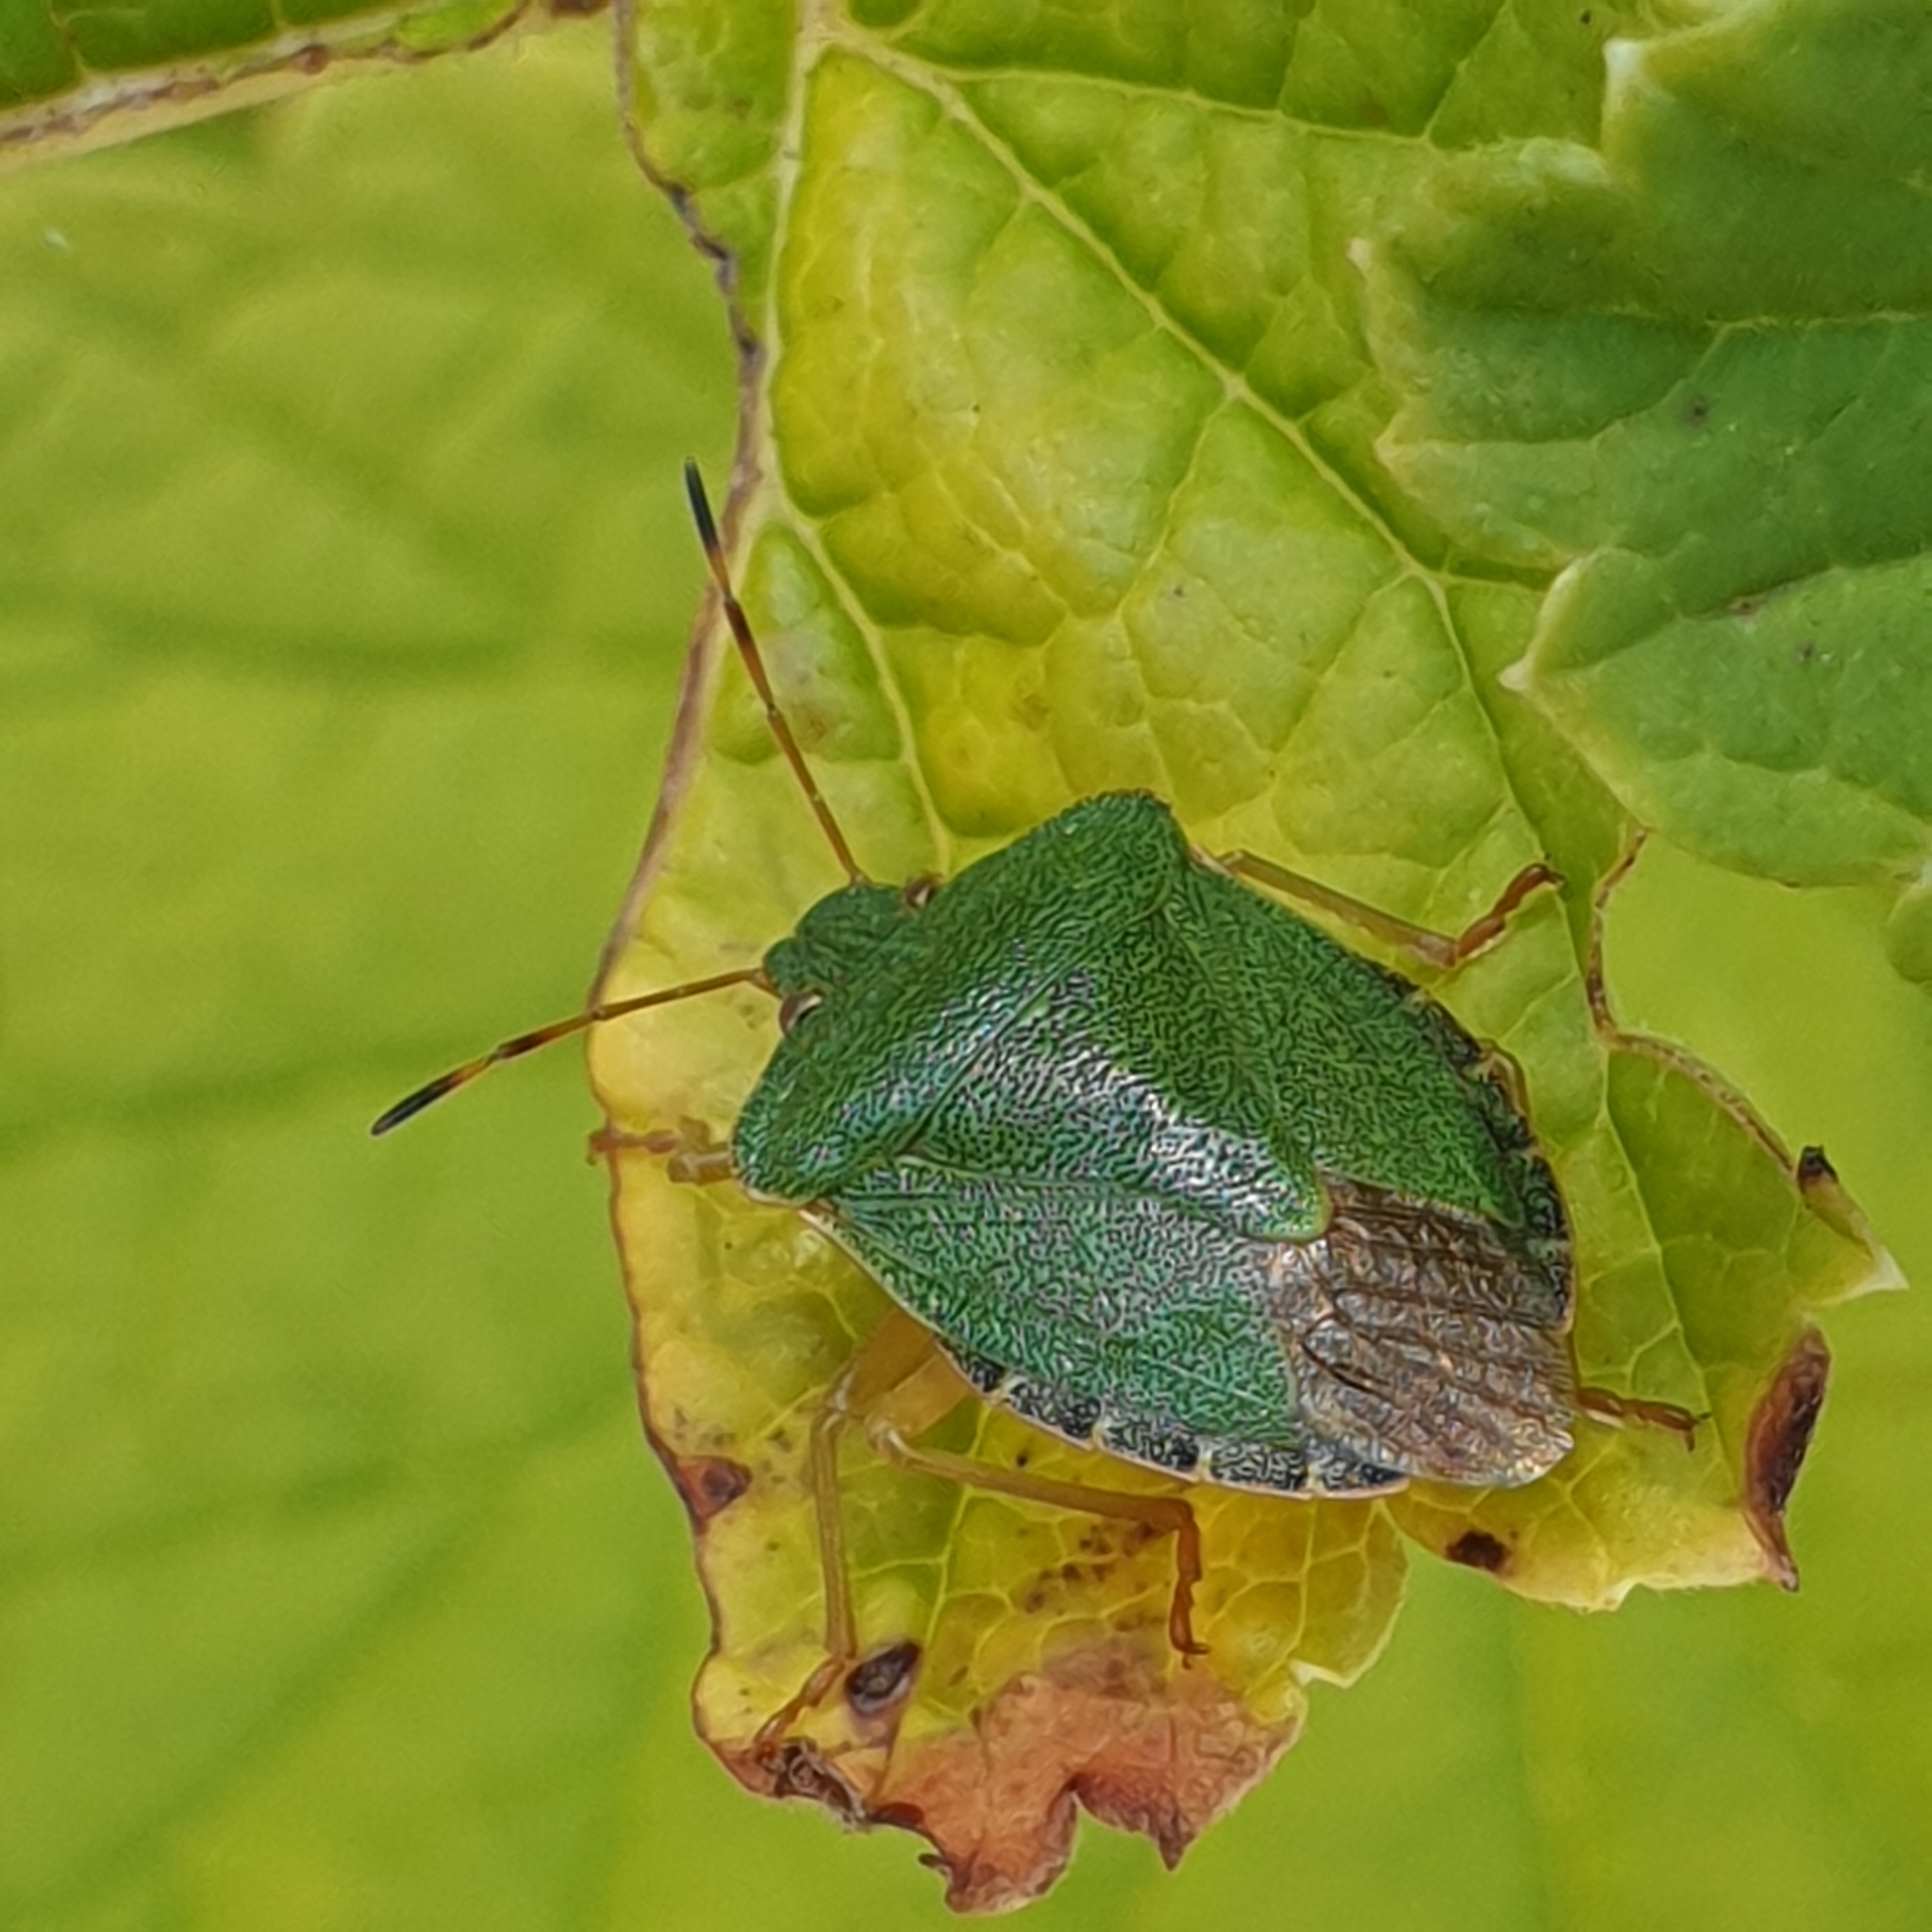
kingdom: Animalia
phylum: Arthropoda
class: Insecta
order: Hemiptera
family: Pentatomidae
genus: Palomena
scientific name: Palomena prasina
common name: Green shieldbug
